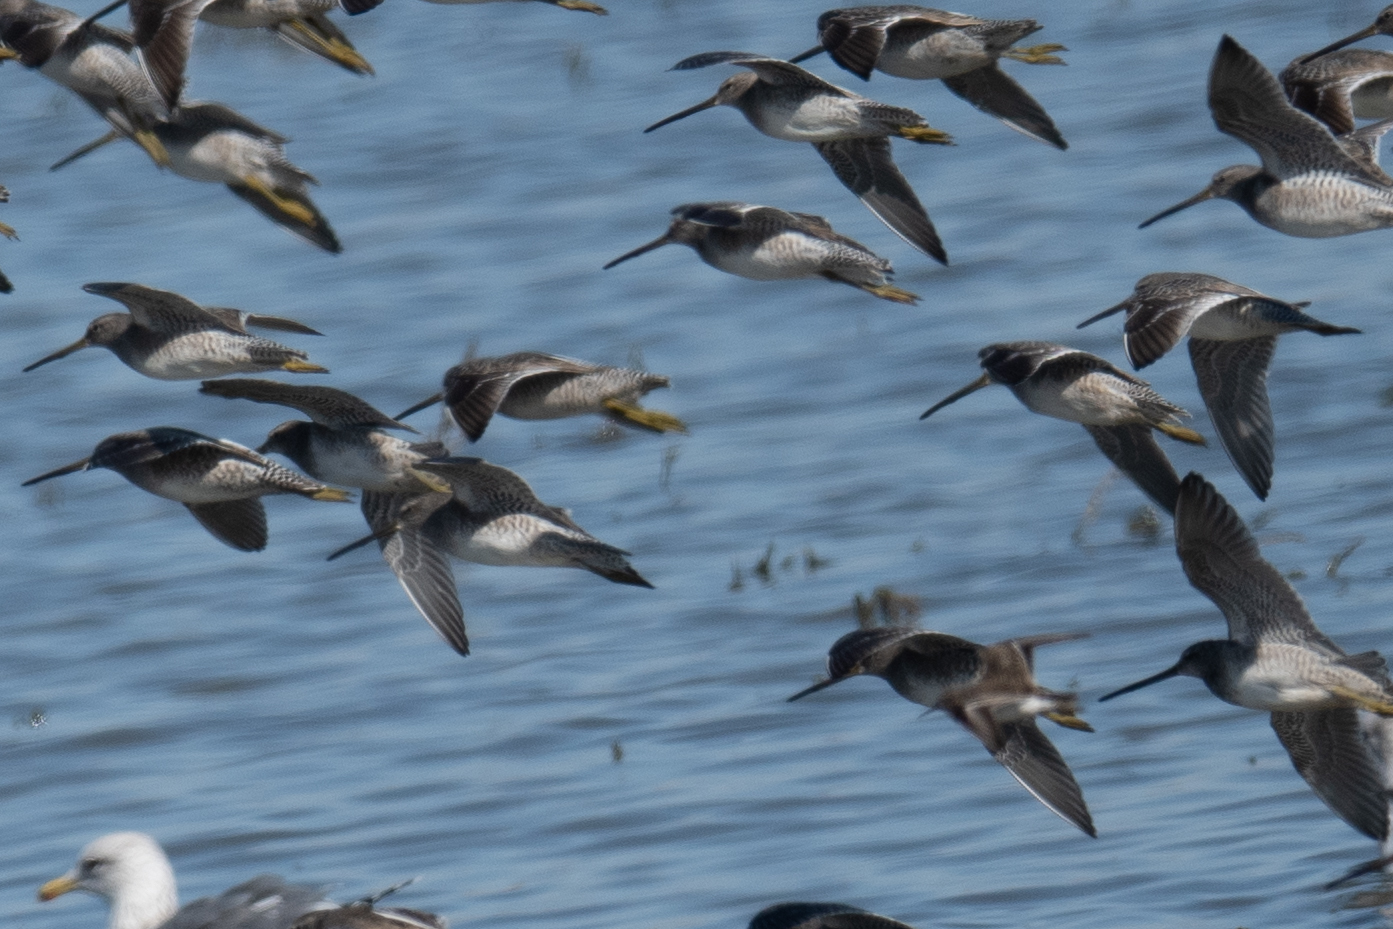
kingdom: Animalia
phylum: Chordata
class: Aves
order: Charadriiformes
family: Scolopacidae
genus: Limnodromus
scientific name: Limnodromus scolopaceus
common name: Long-billed dowitcher
